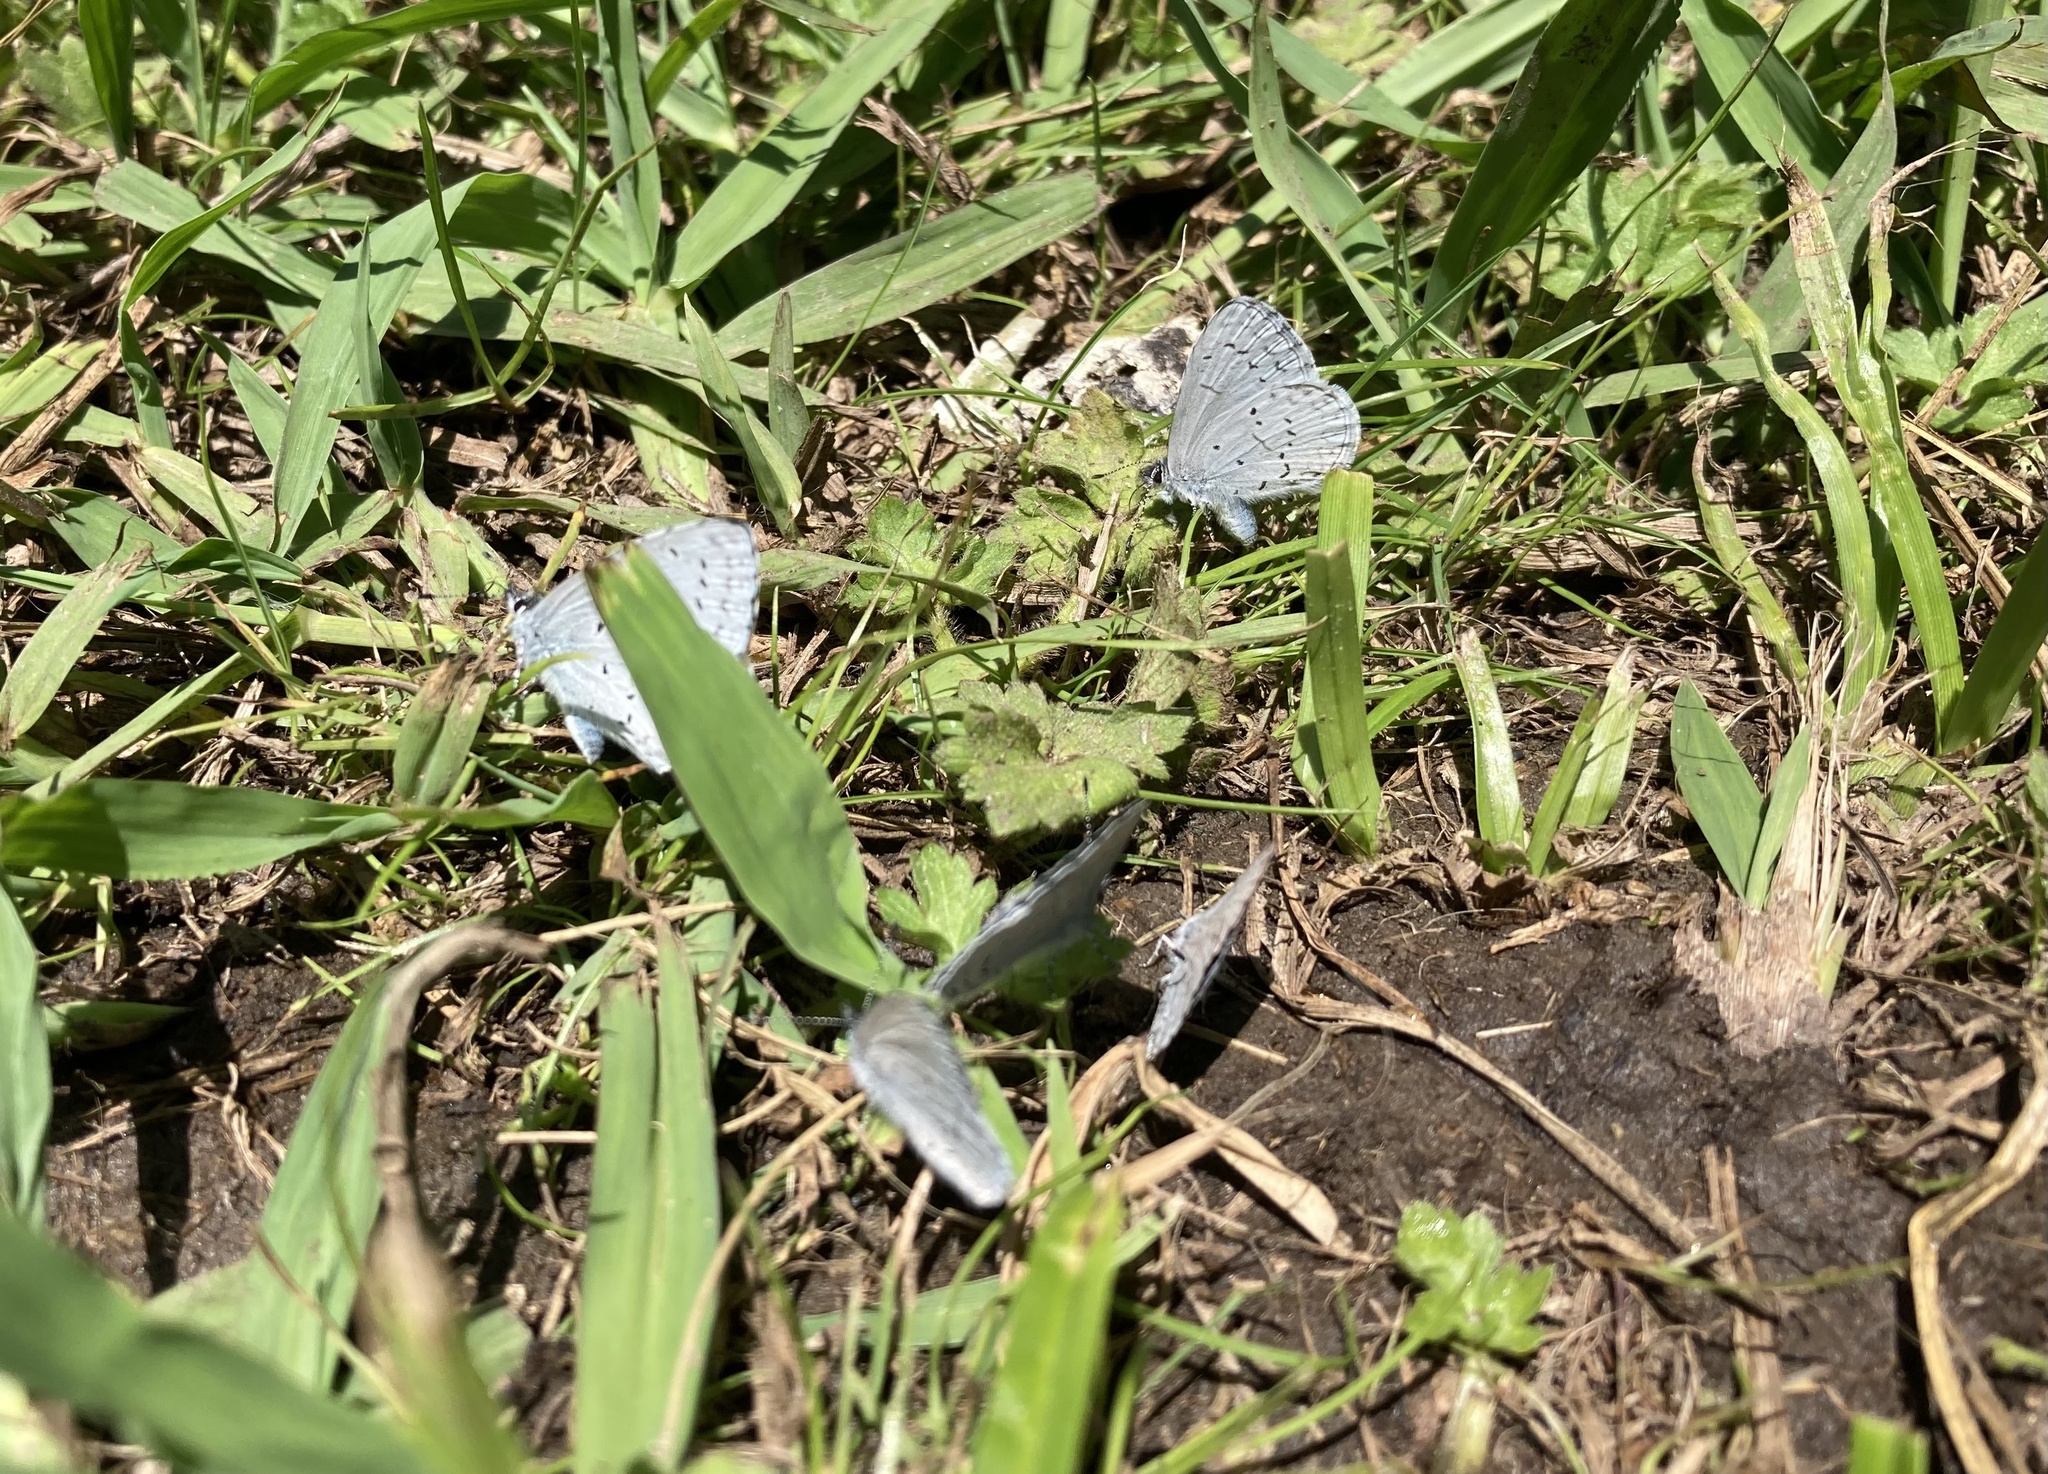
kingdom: Animalia
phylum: Arthropoda
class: Insecta
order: Lepidoptera
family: Lycaenidae
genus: Celastrina
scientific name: Celastrina ladon
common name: Spring azure
